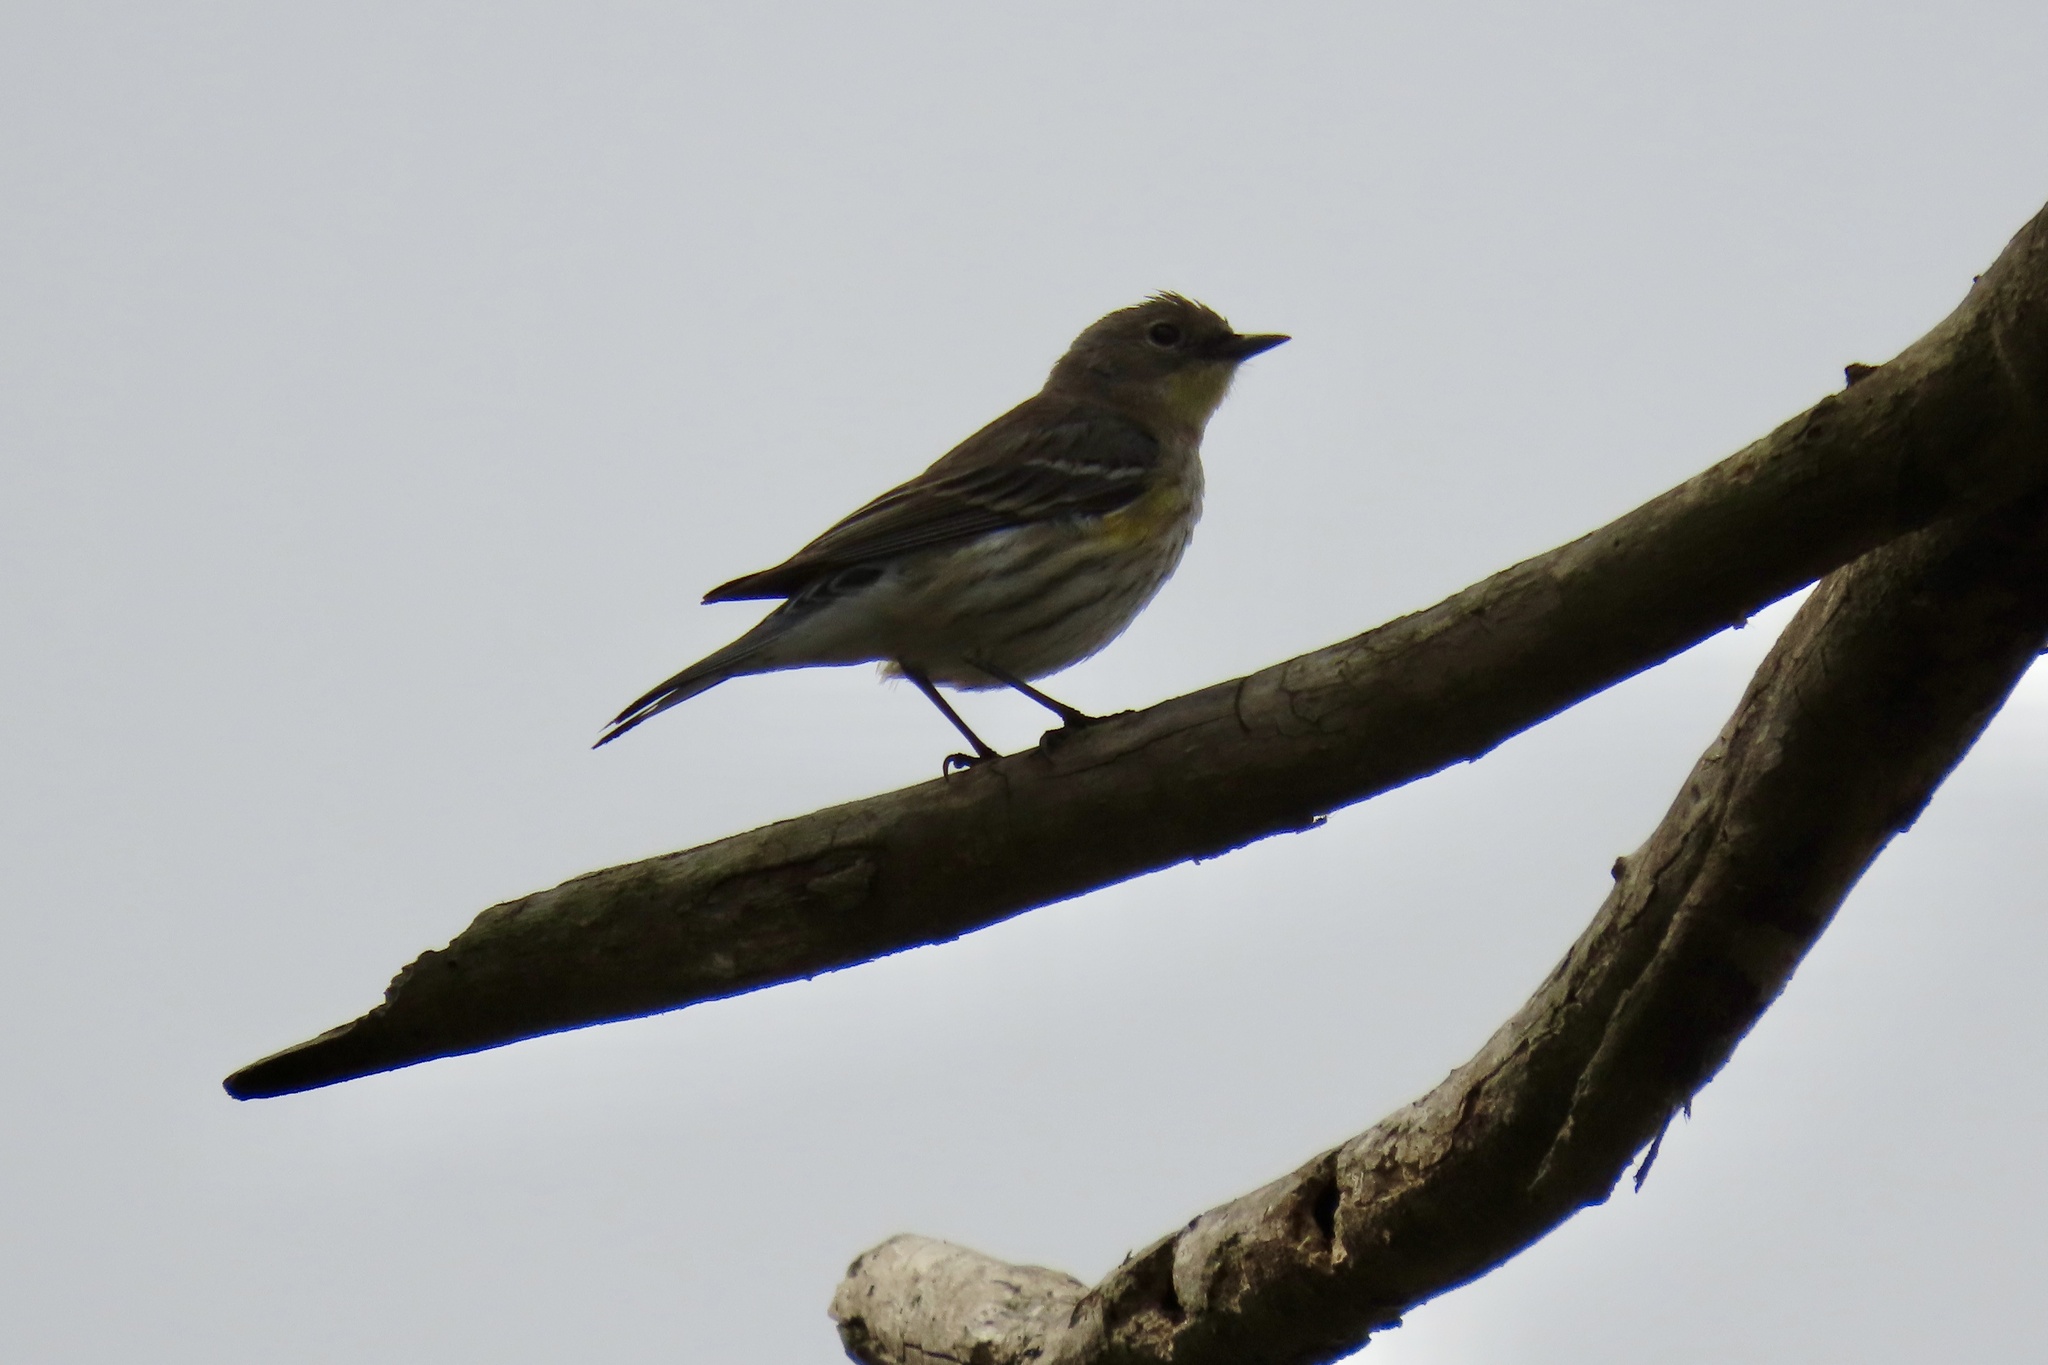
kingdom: Animalia
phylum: Chordata
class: Aves
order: Passeriformes
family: Parulidae
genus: Setophaga
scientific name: Setophaga coronata
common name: Myrtle warbler
